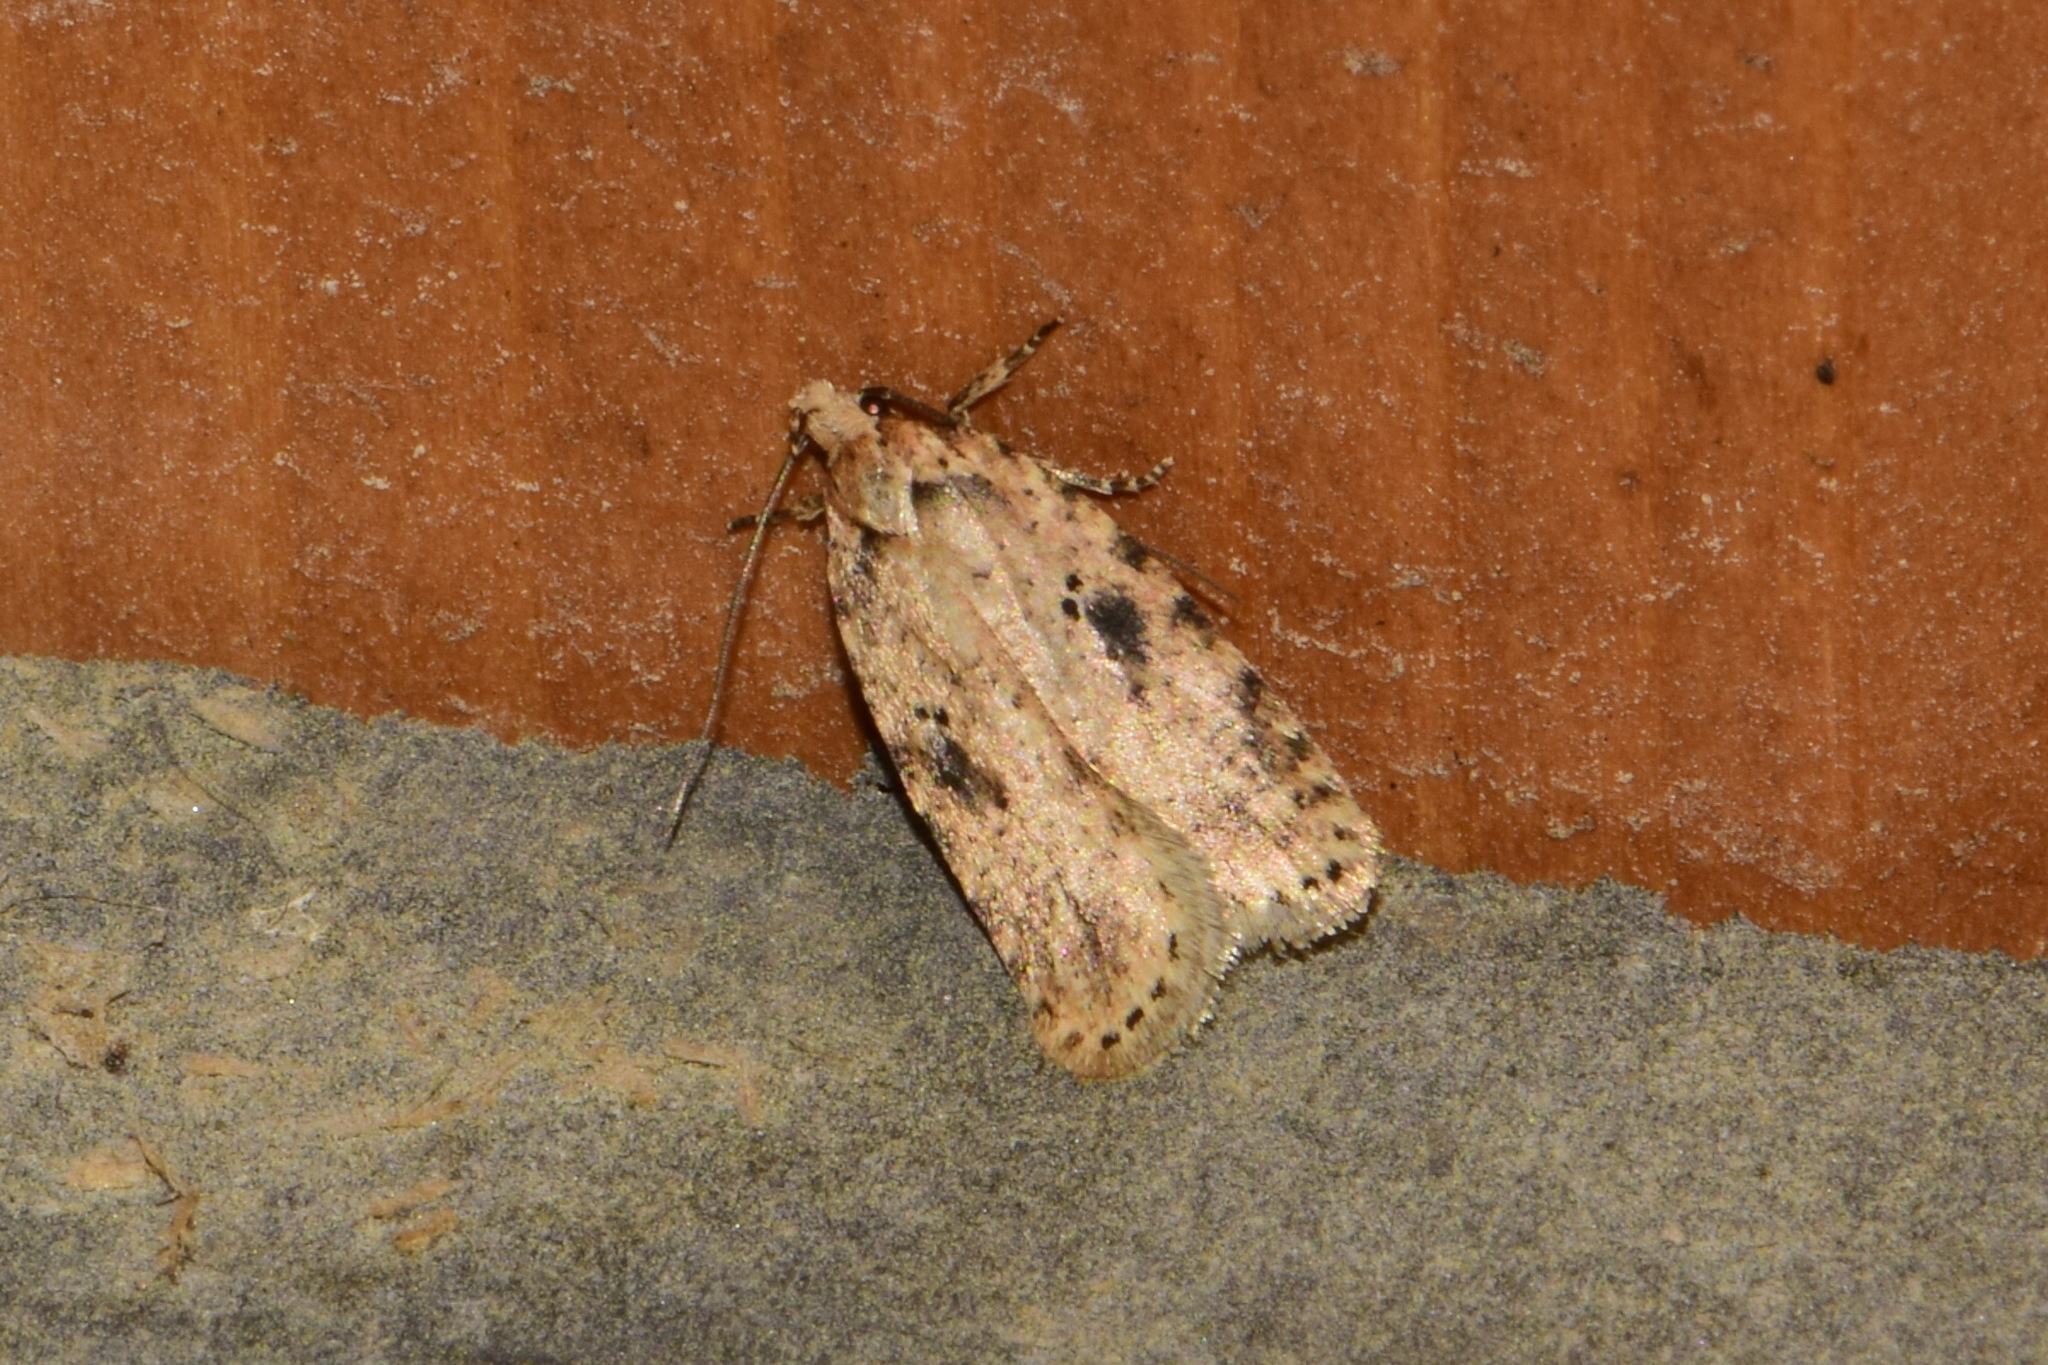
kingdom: Animalia
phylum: Arthropoda
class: Insecta
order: Lepidoptera
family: Depressariidae
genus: Agonopterix
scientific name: Agonopterix arenella
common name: Brindled flat-body
